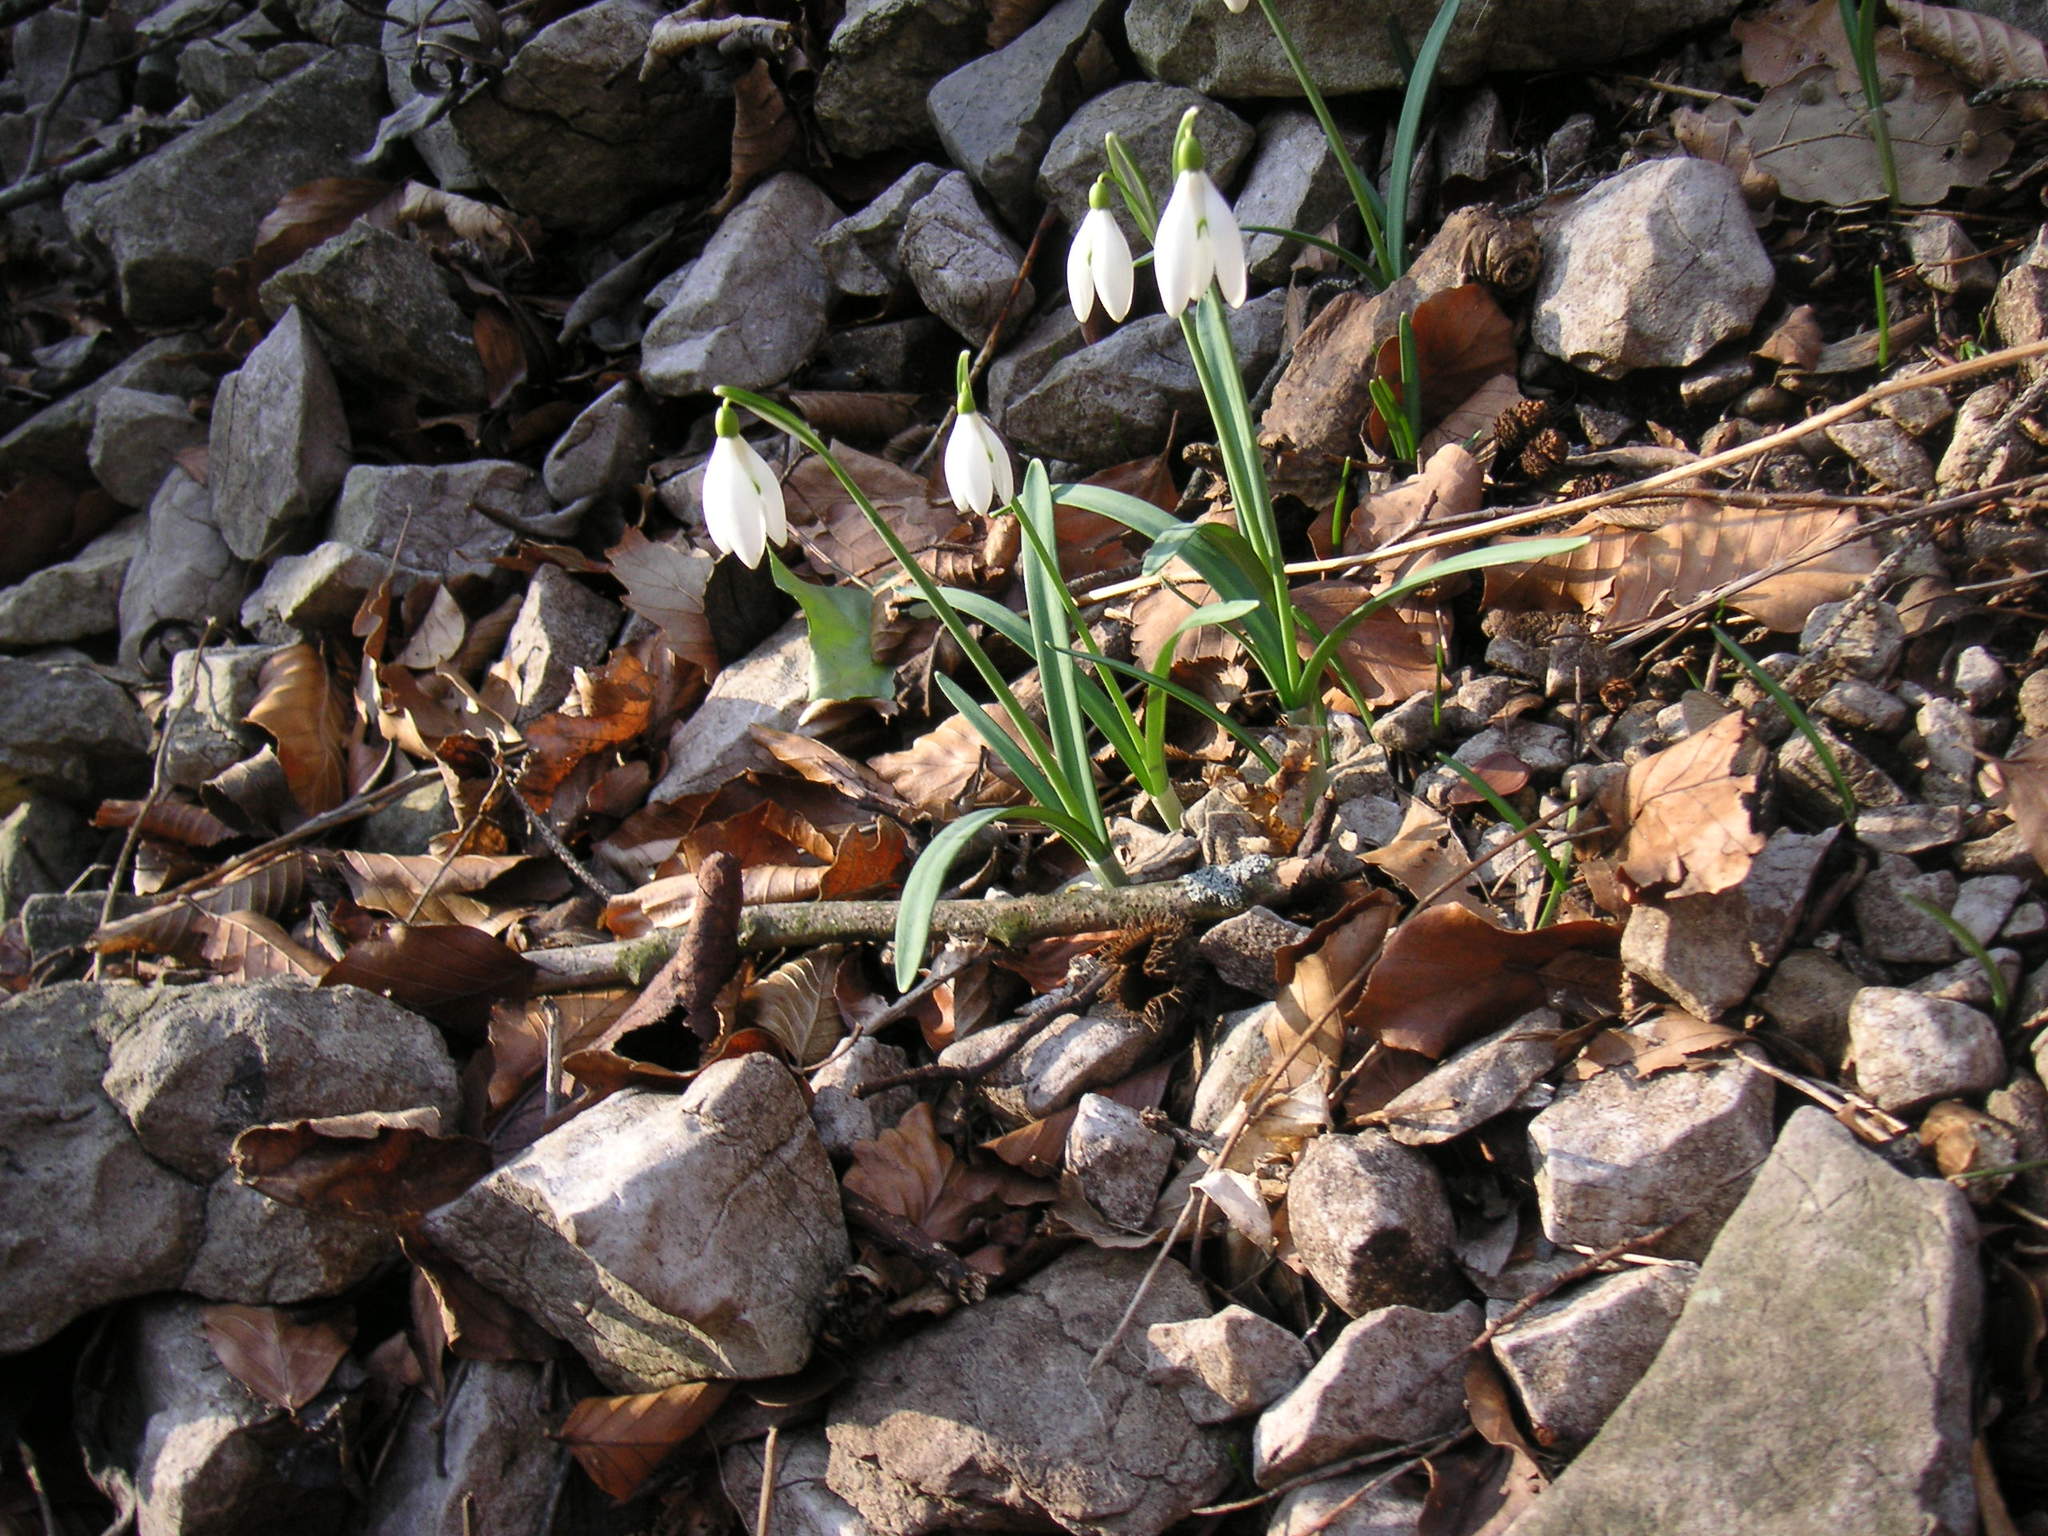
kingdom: Plantae
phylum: Tracheophyta
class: Liliopsida
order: Asparagales
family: Amaryllidaceae
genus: Galanthus
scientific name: Galanthus nivalis
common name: Snowdrop
